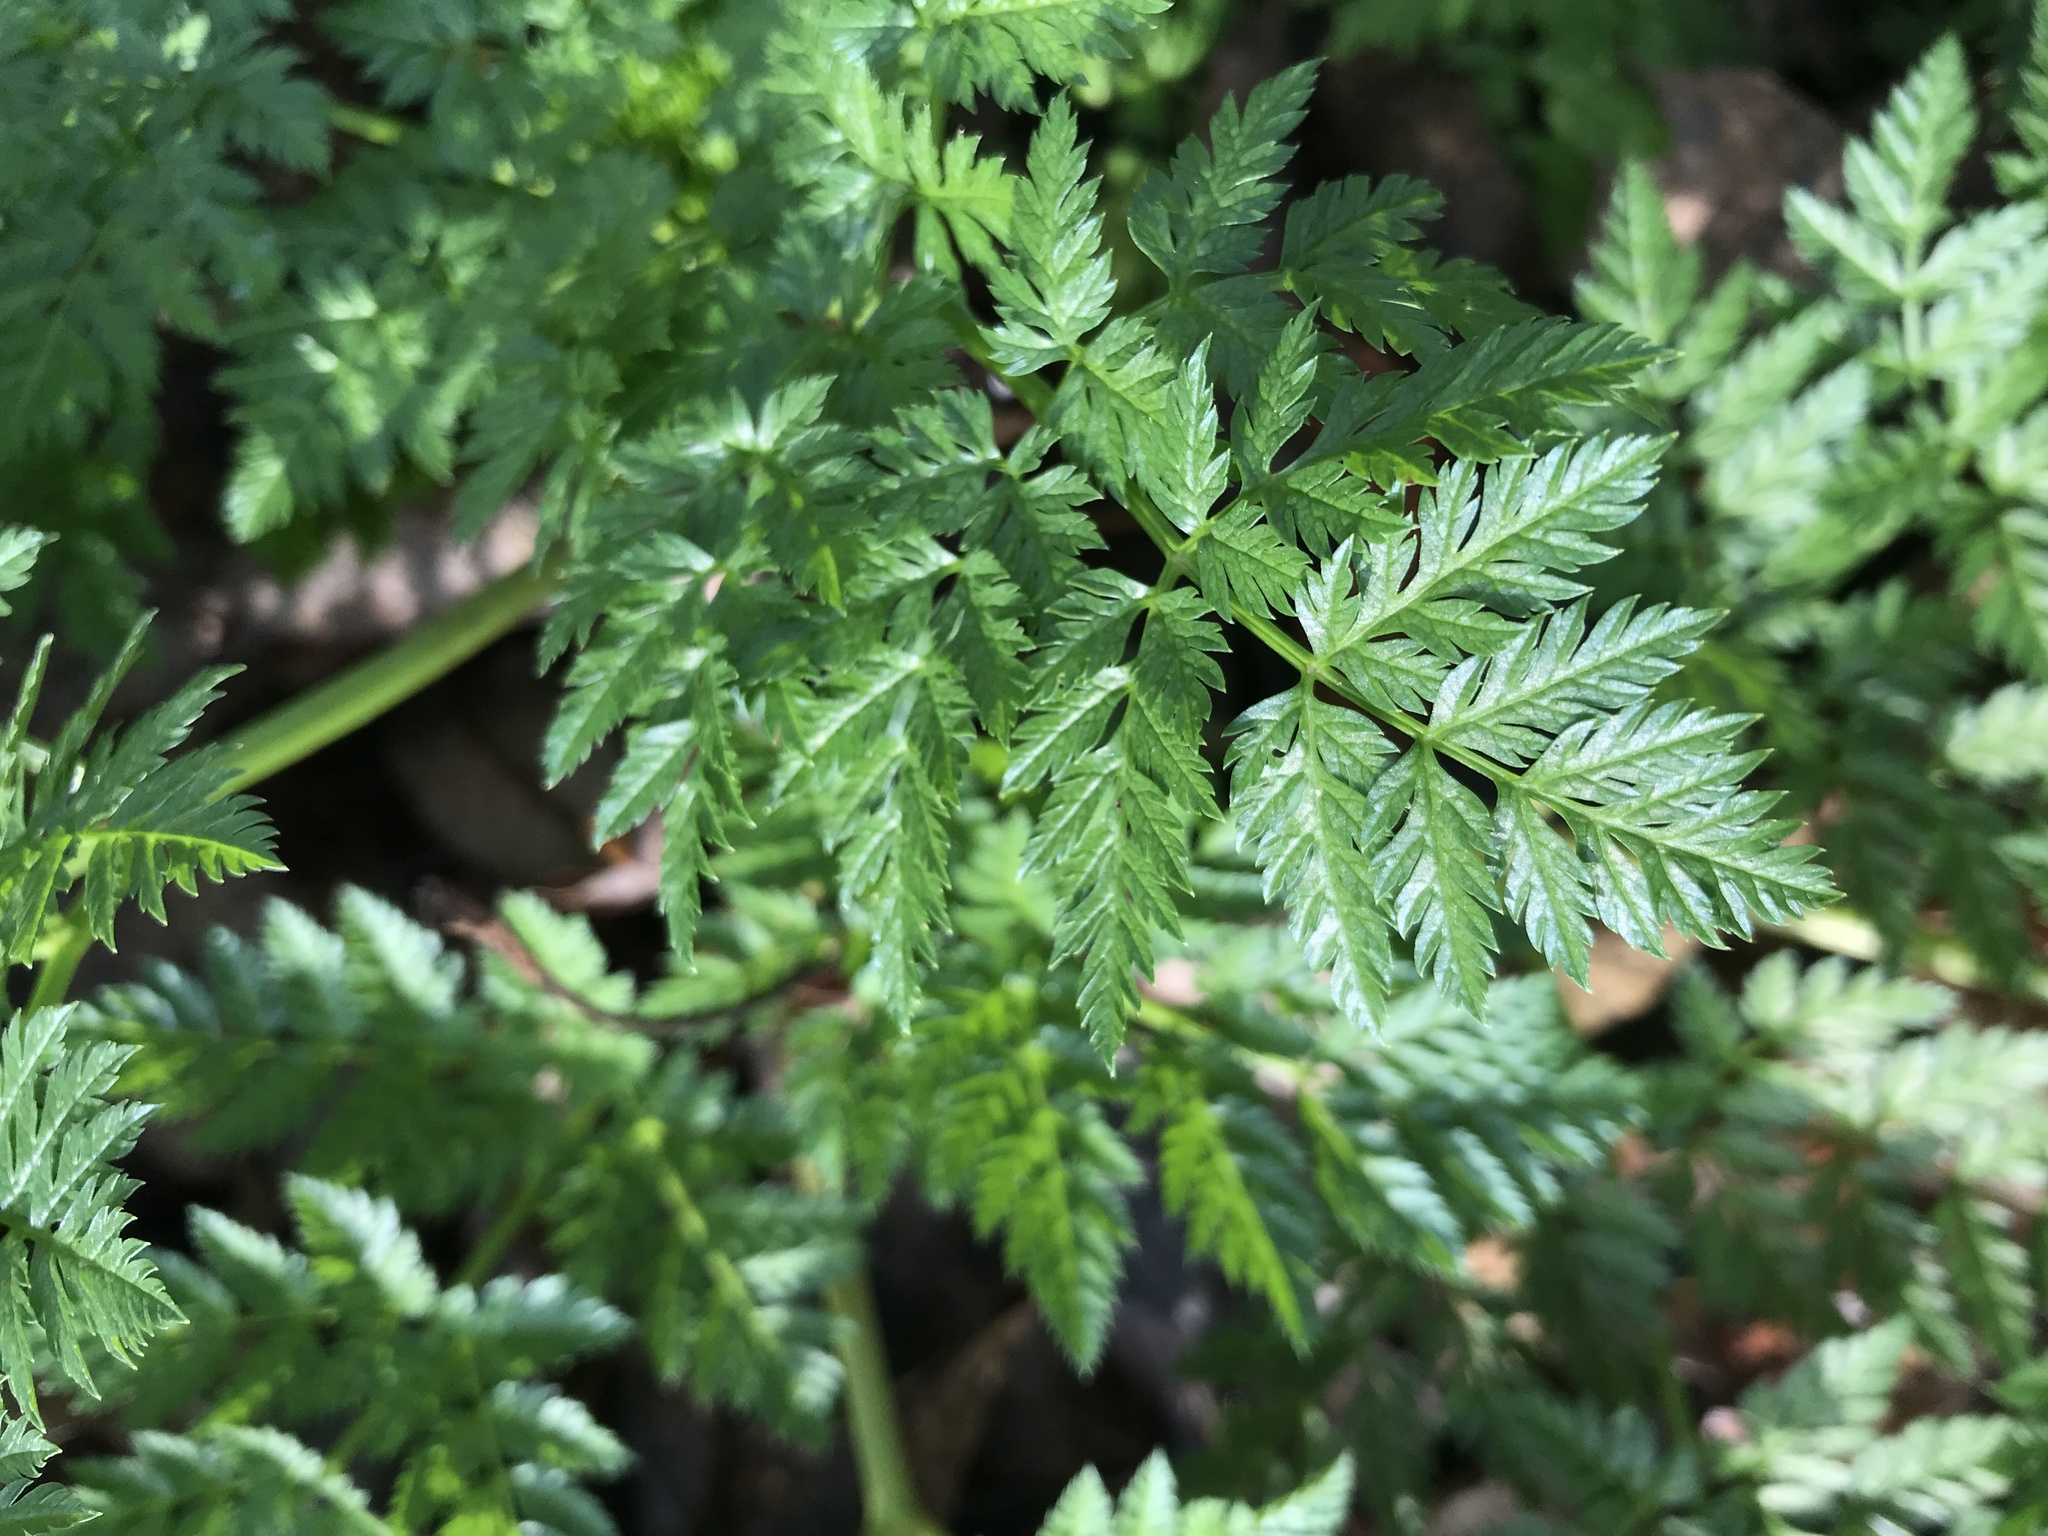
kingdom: Plantae
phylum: Tracheophyta
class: Magnoliopsida
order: Apiales
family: Apiaceae
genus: Conium
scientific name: Conium maculatum
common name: Hemlock
